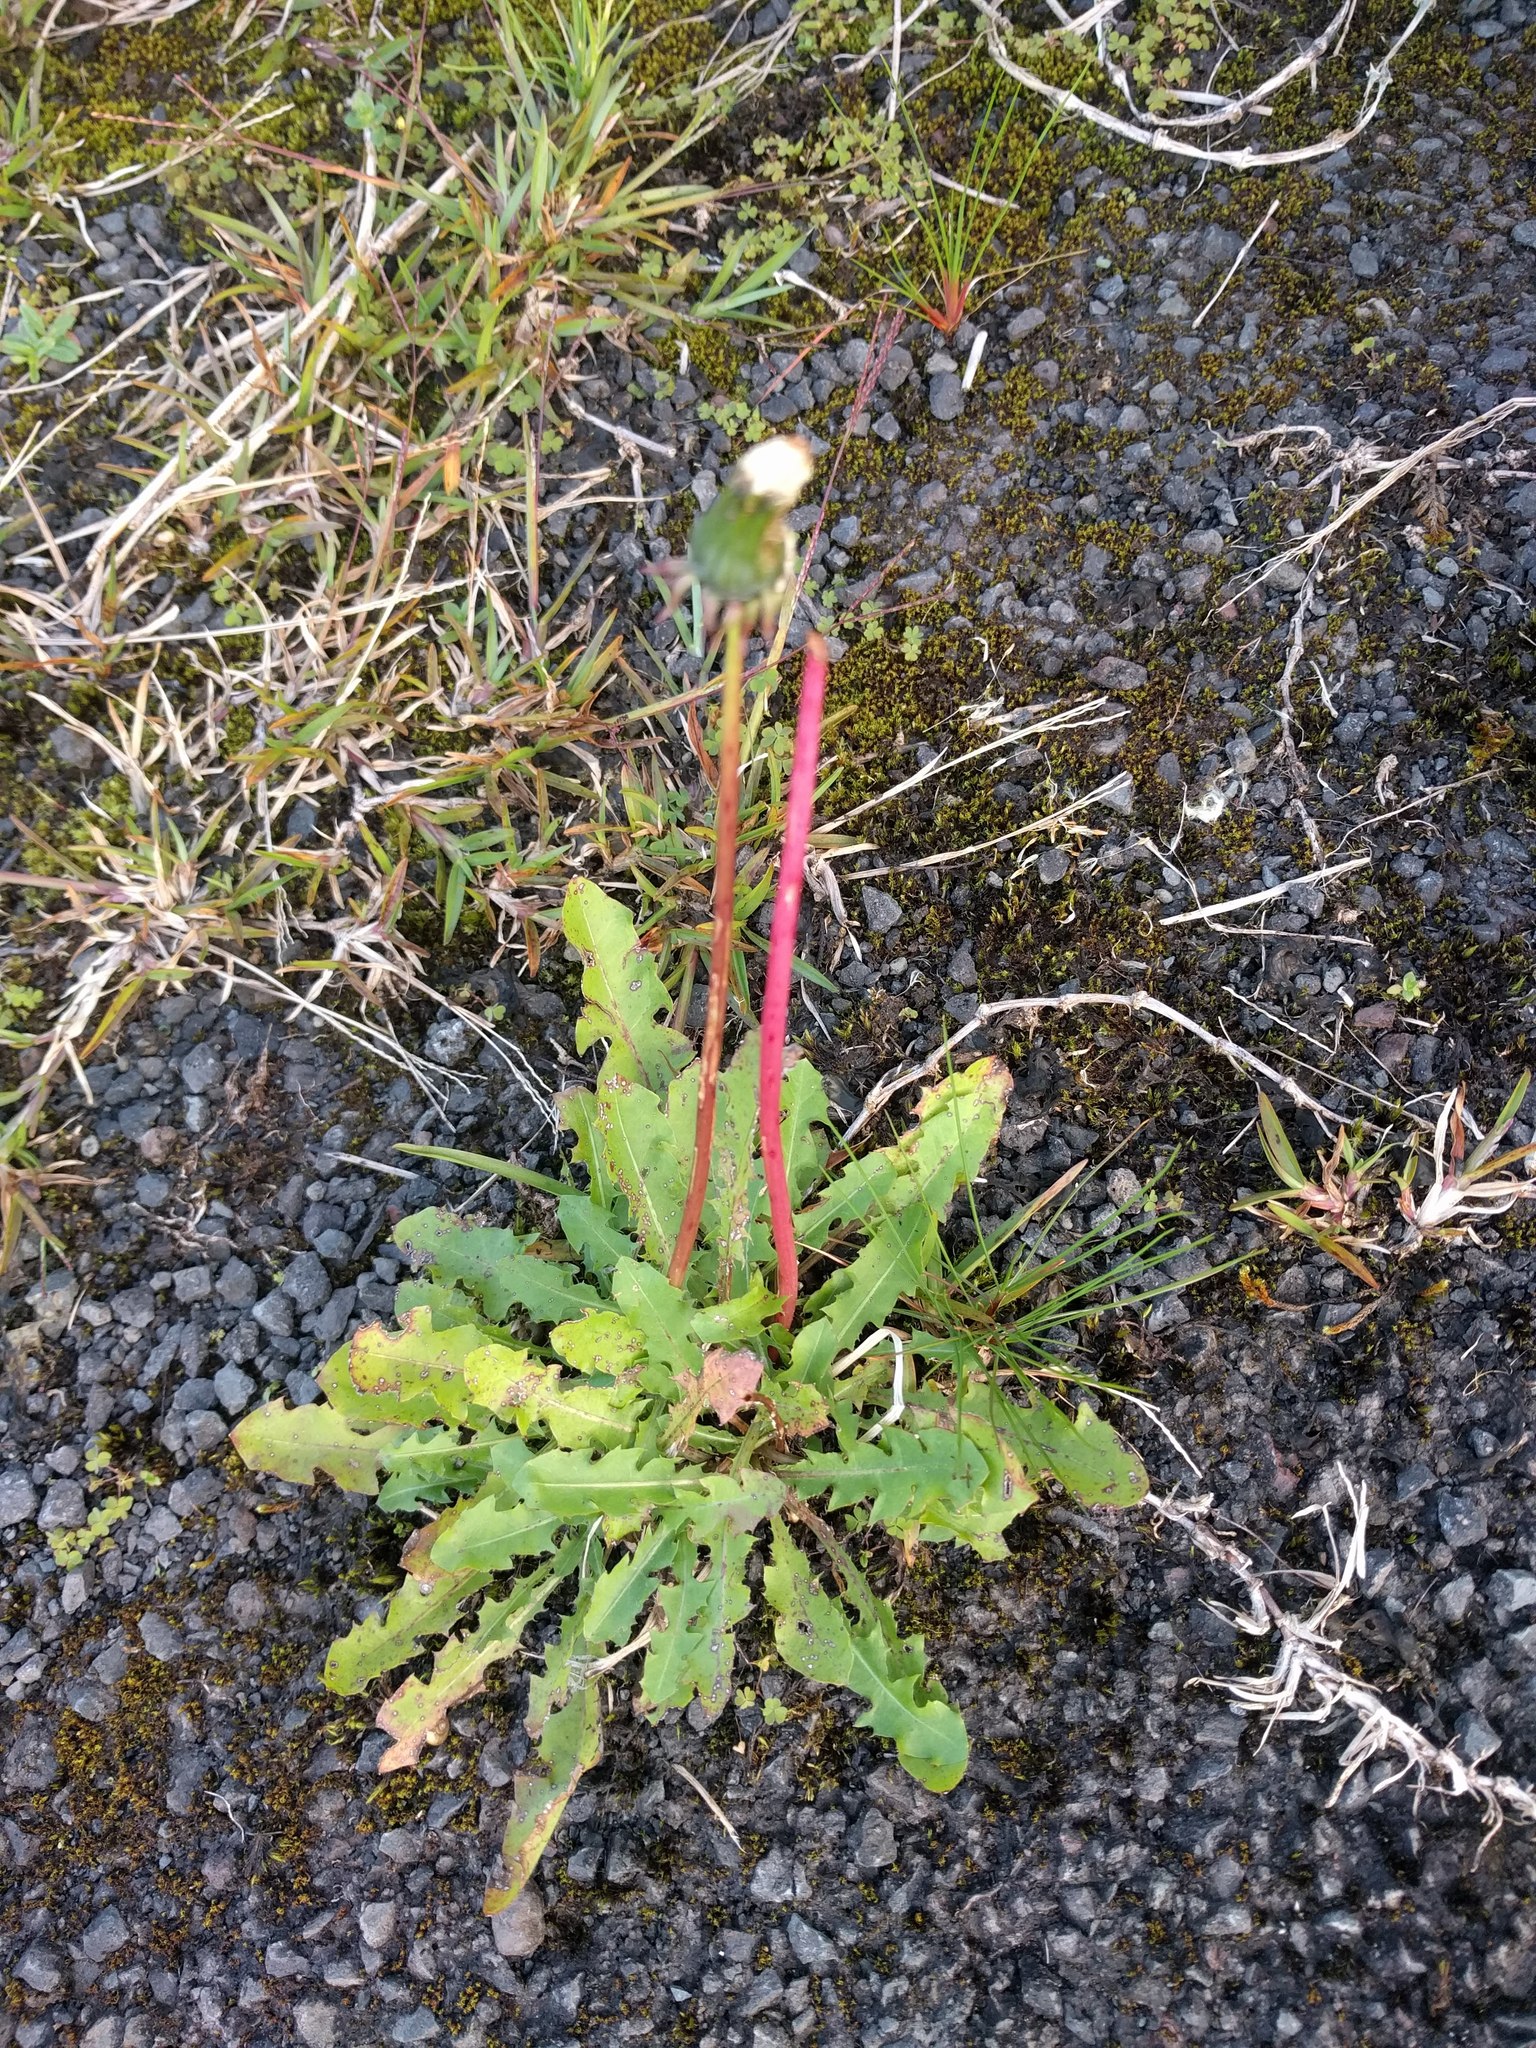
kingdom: Plantae
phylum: Tracheophyta
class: Magnoliopsida
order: Asterales
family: Asteraceae
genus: Taraxacum
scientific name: Taraxacum officinale
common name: Common dandelion
